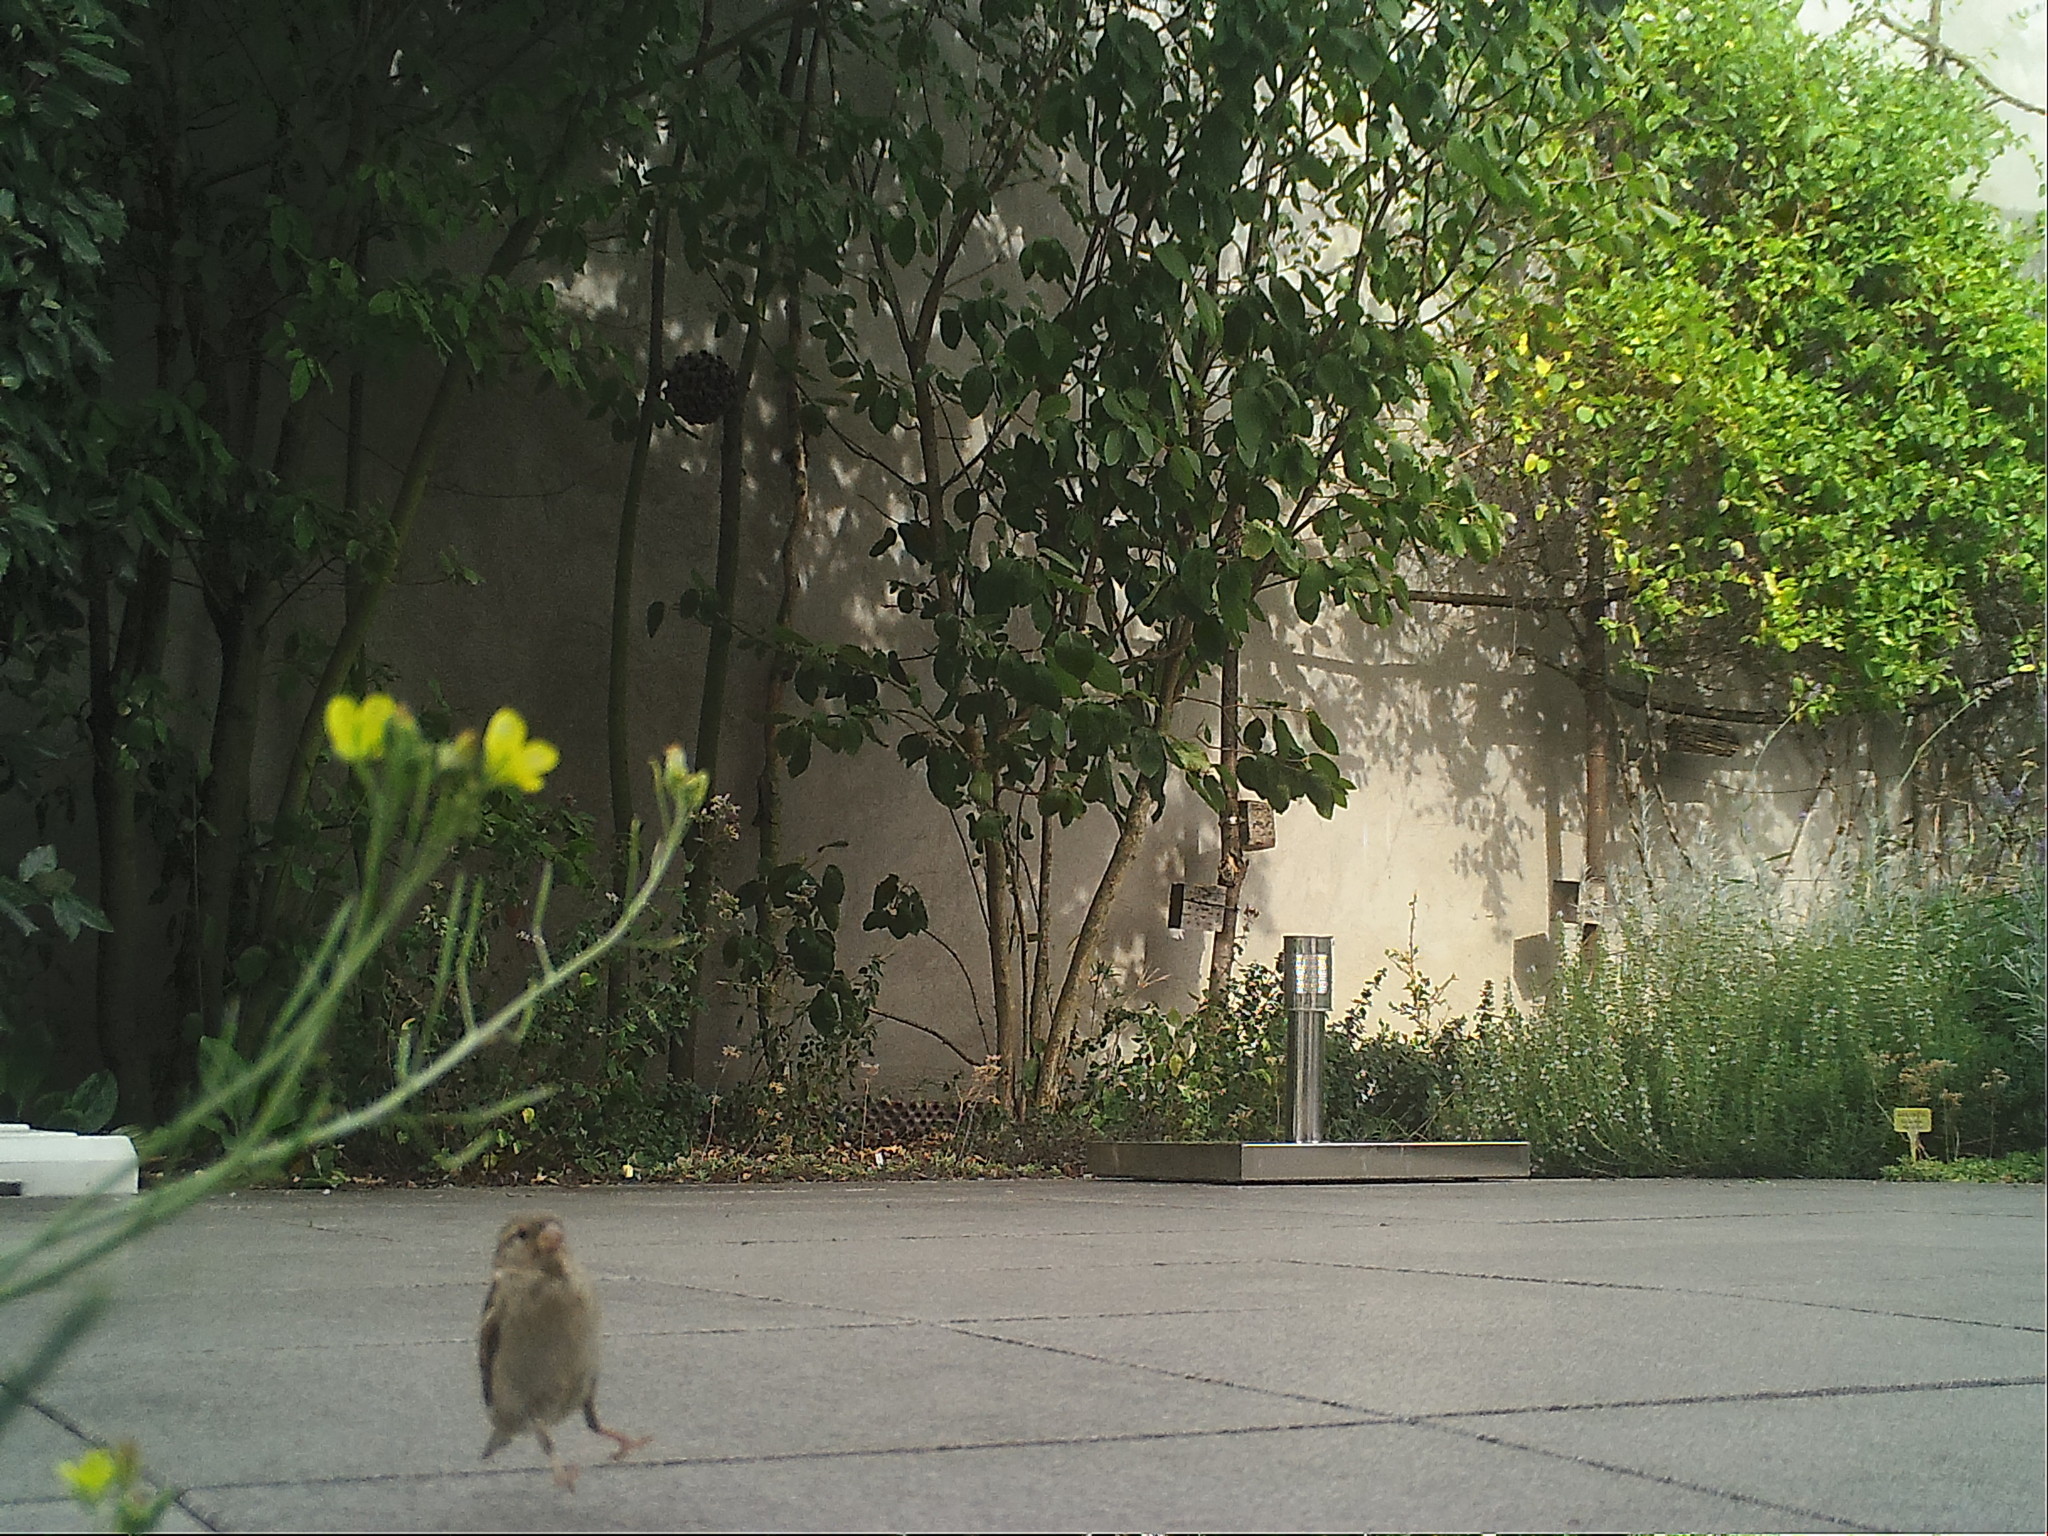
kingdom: Animalia
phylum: Chordata
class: Aves
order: Passeriformes
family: Passeridae
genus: Passer
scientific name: Passer domesticus
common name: House sparrow
